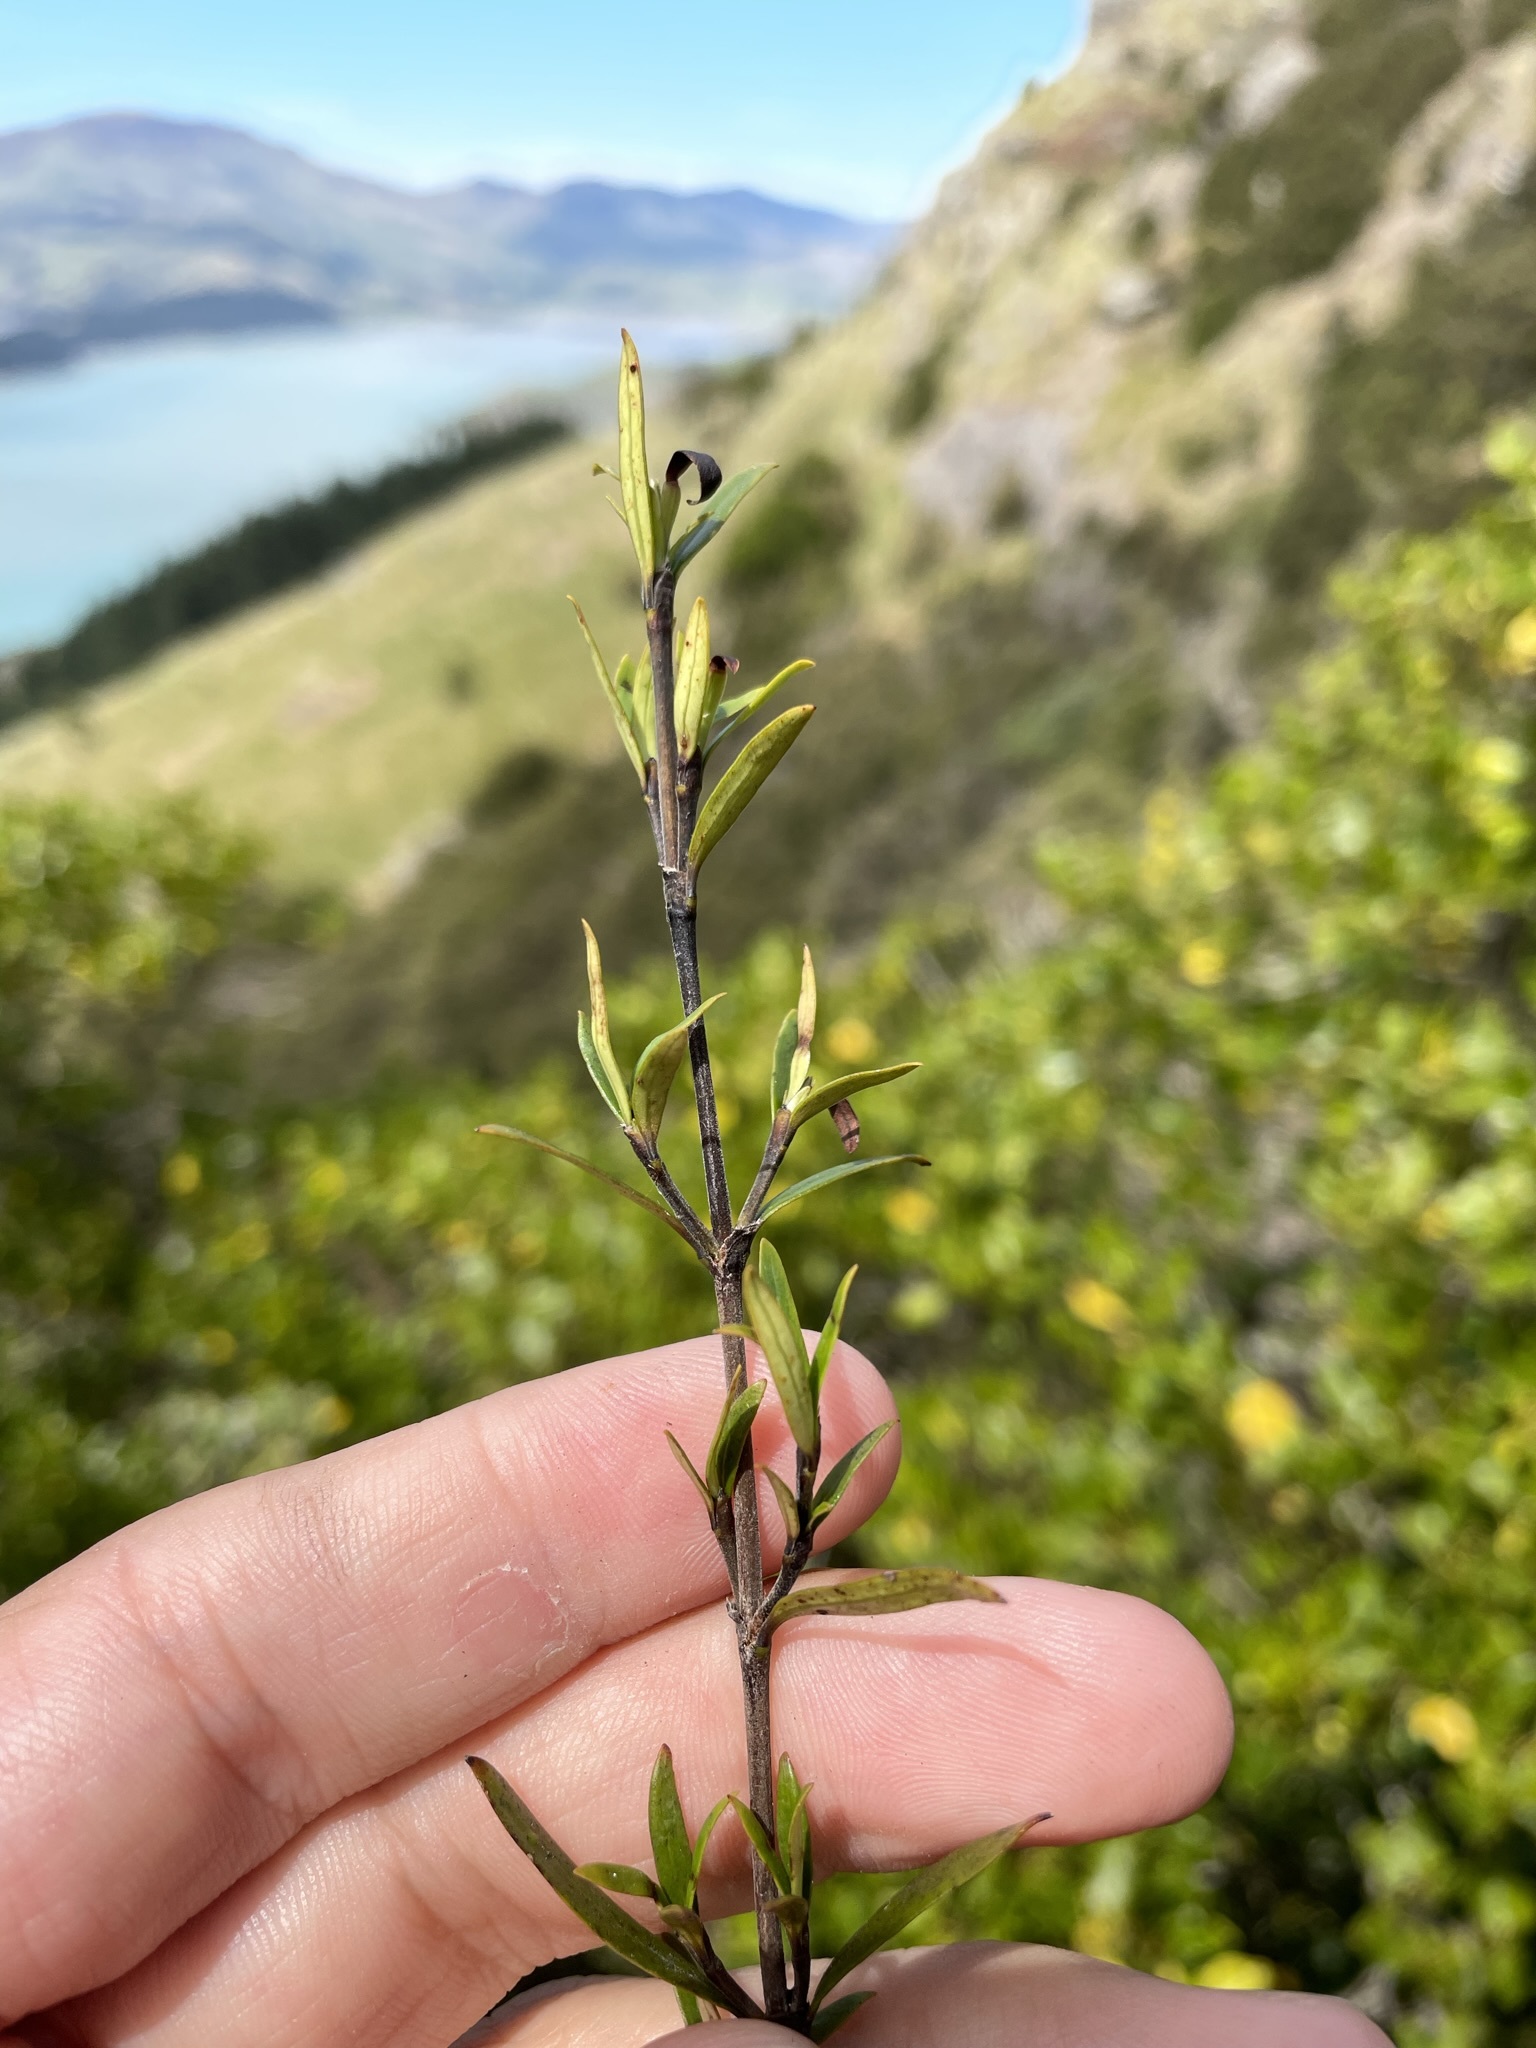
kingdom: Plantae
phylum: Tracheophyta
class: Magnoliopsida
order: Gentianales
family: Rubiaceae
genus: Coprosma
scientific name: Coprosma linariifolia
